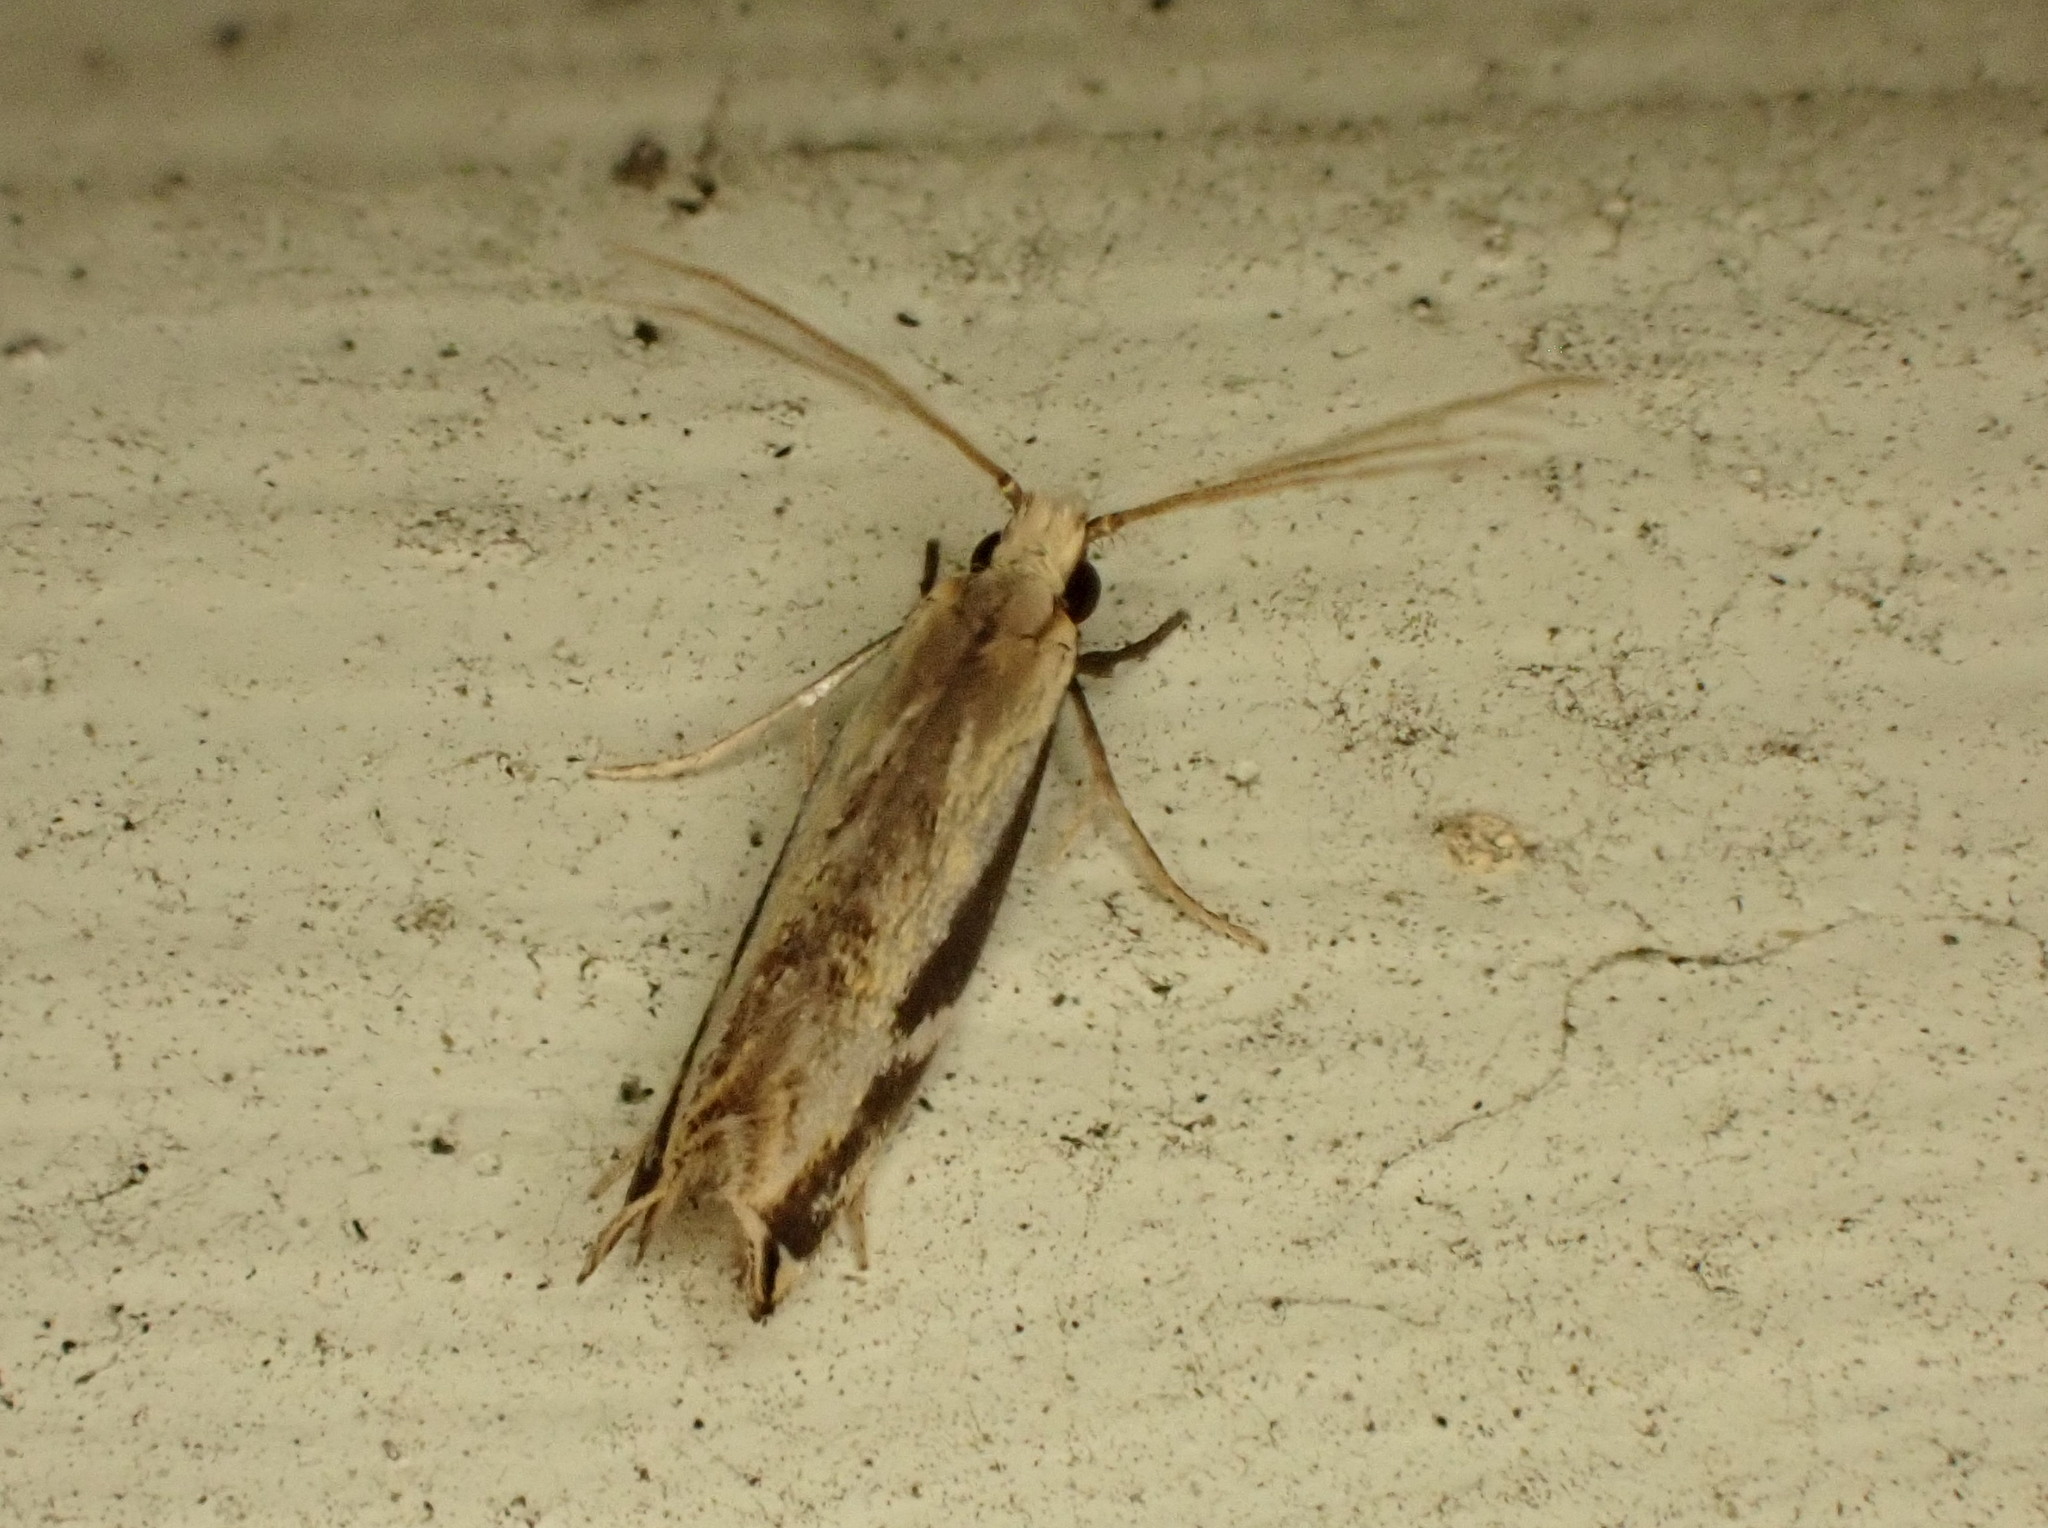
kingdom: Animalia
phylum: Arthropoda
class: Insecta
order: Lepidoptera
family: Tineidae
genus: Erechthias
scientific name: Erechthias terminella
